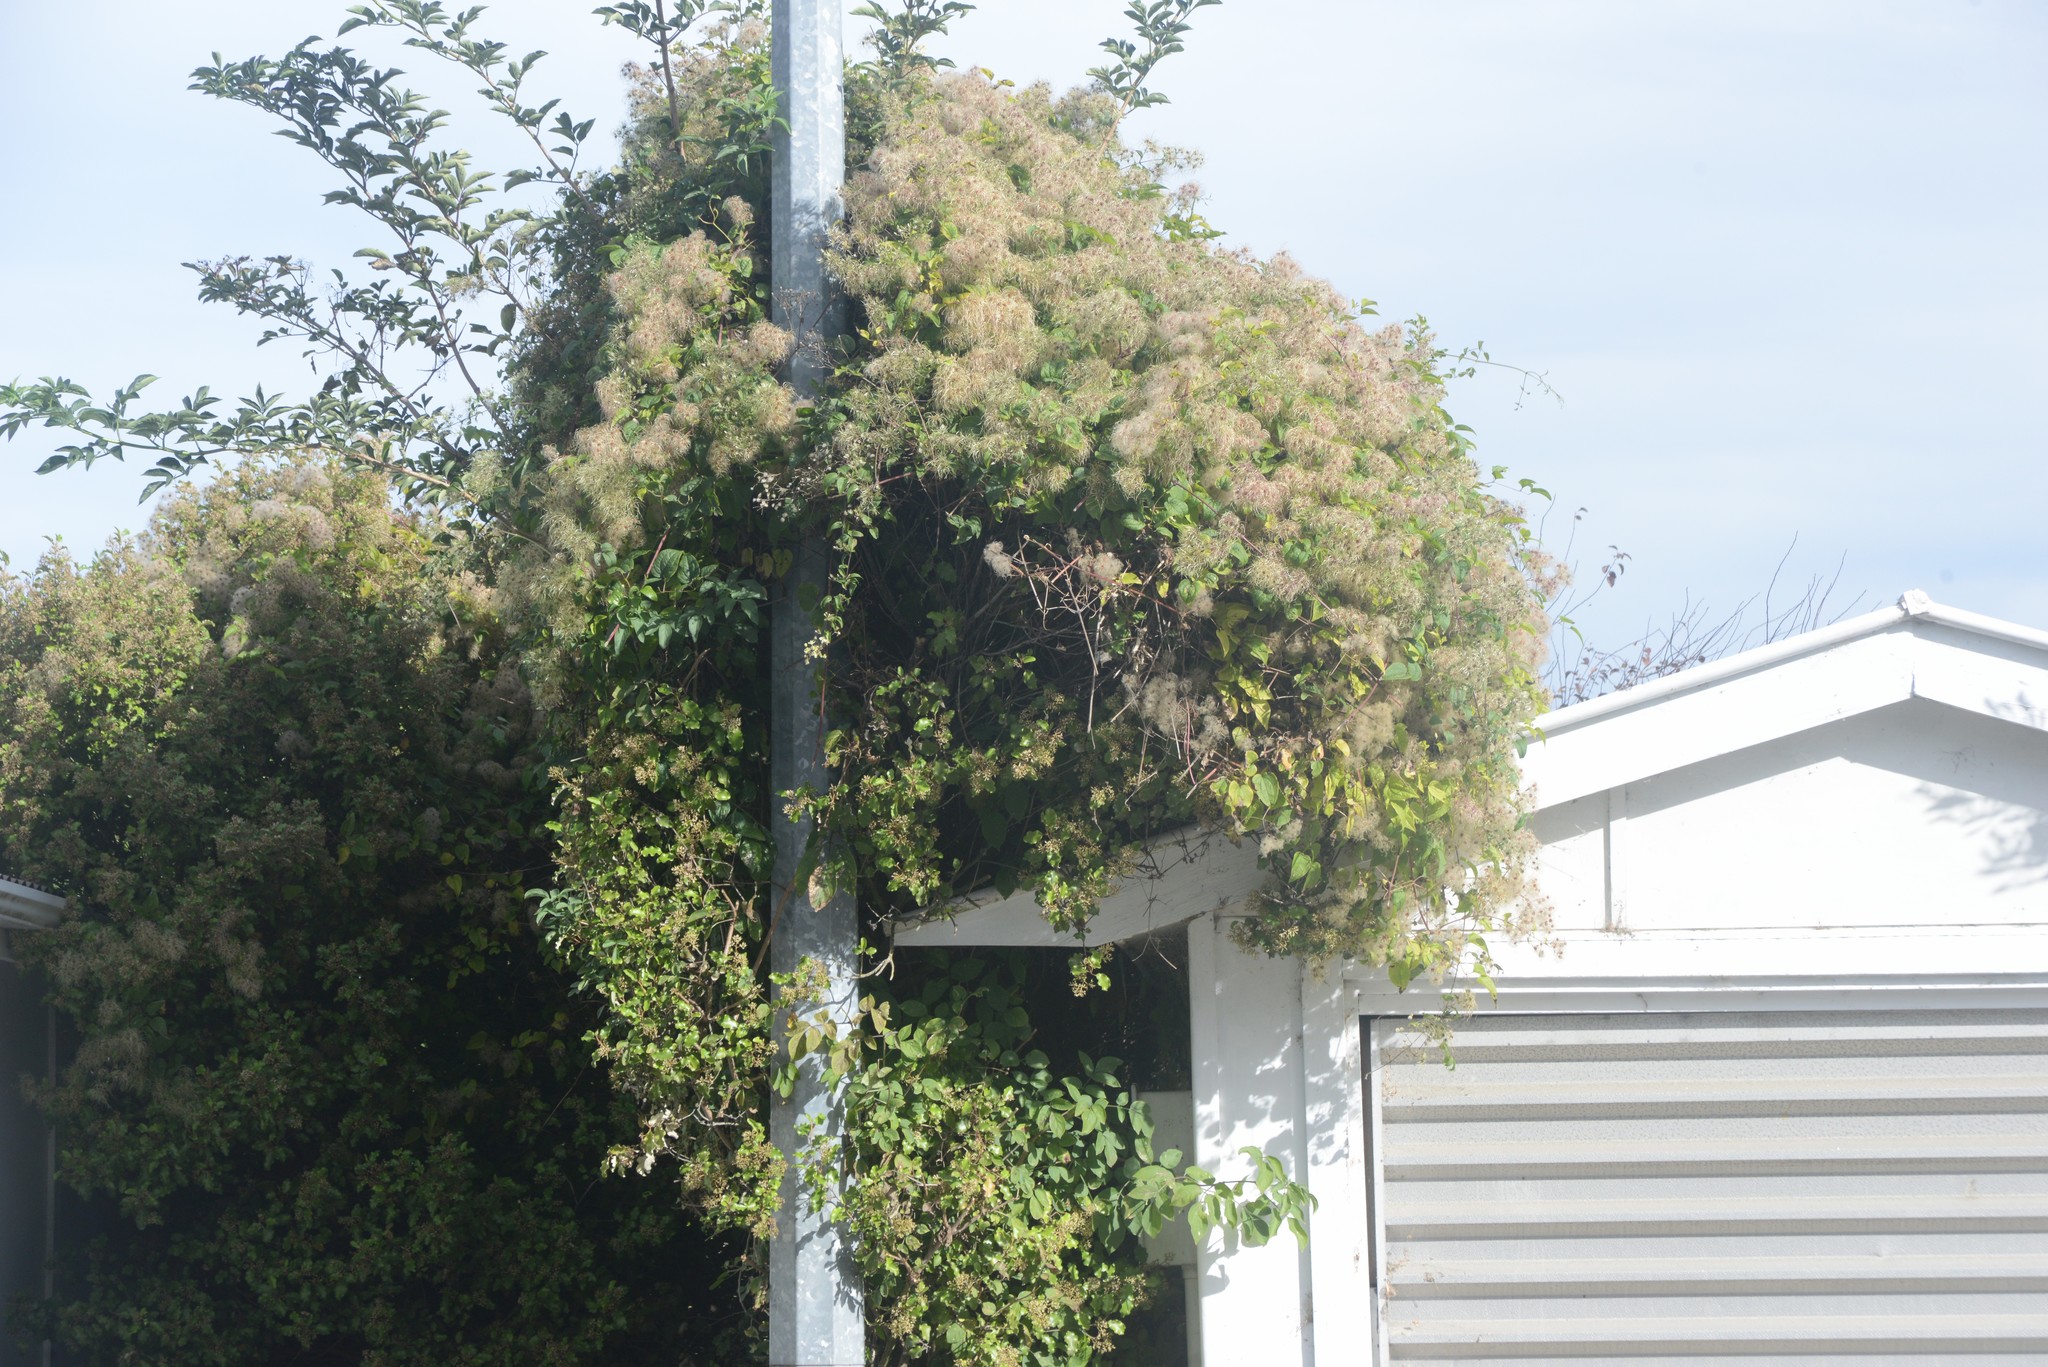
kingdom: Plantae
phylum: Tracheophyta
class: Magnoliopsida
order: Ranunculales
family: Ranunculaceae
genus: Clematis
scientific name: Clematis vitalba
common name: Evergreen clematis
